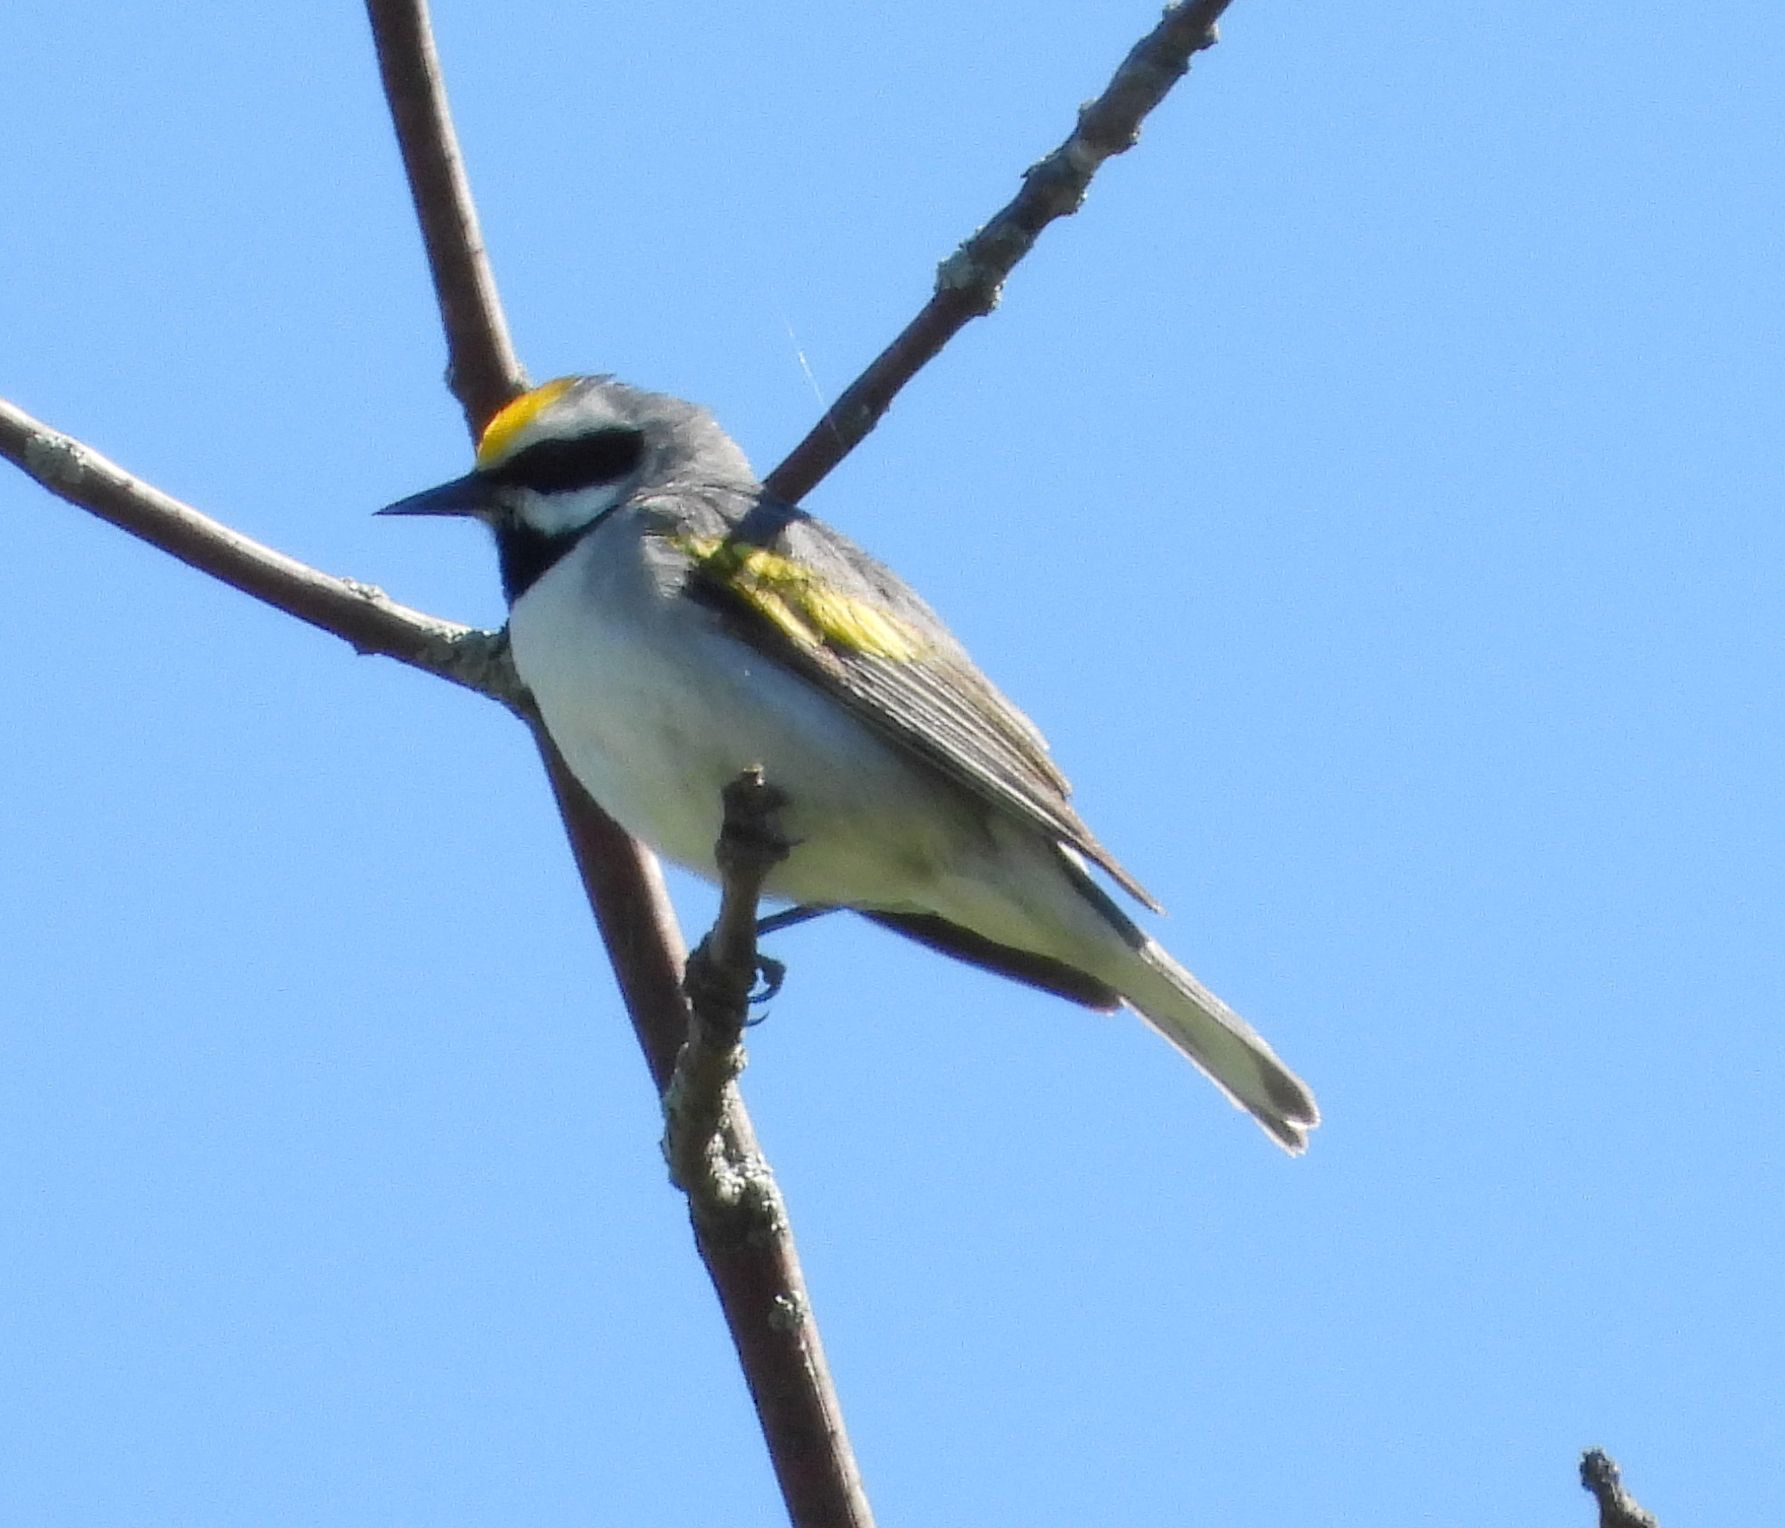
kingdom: Animalia
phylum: Chordata
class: Aves
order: Passeriformes
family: Parulidae
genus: Vermivora
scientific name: Vermivora chrysoptera
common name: Golden-winged warbler
